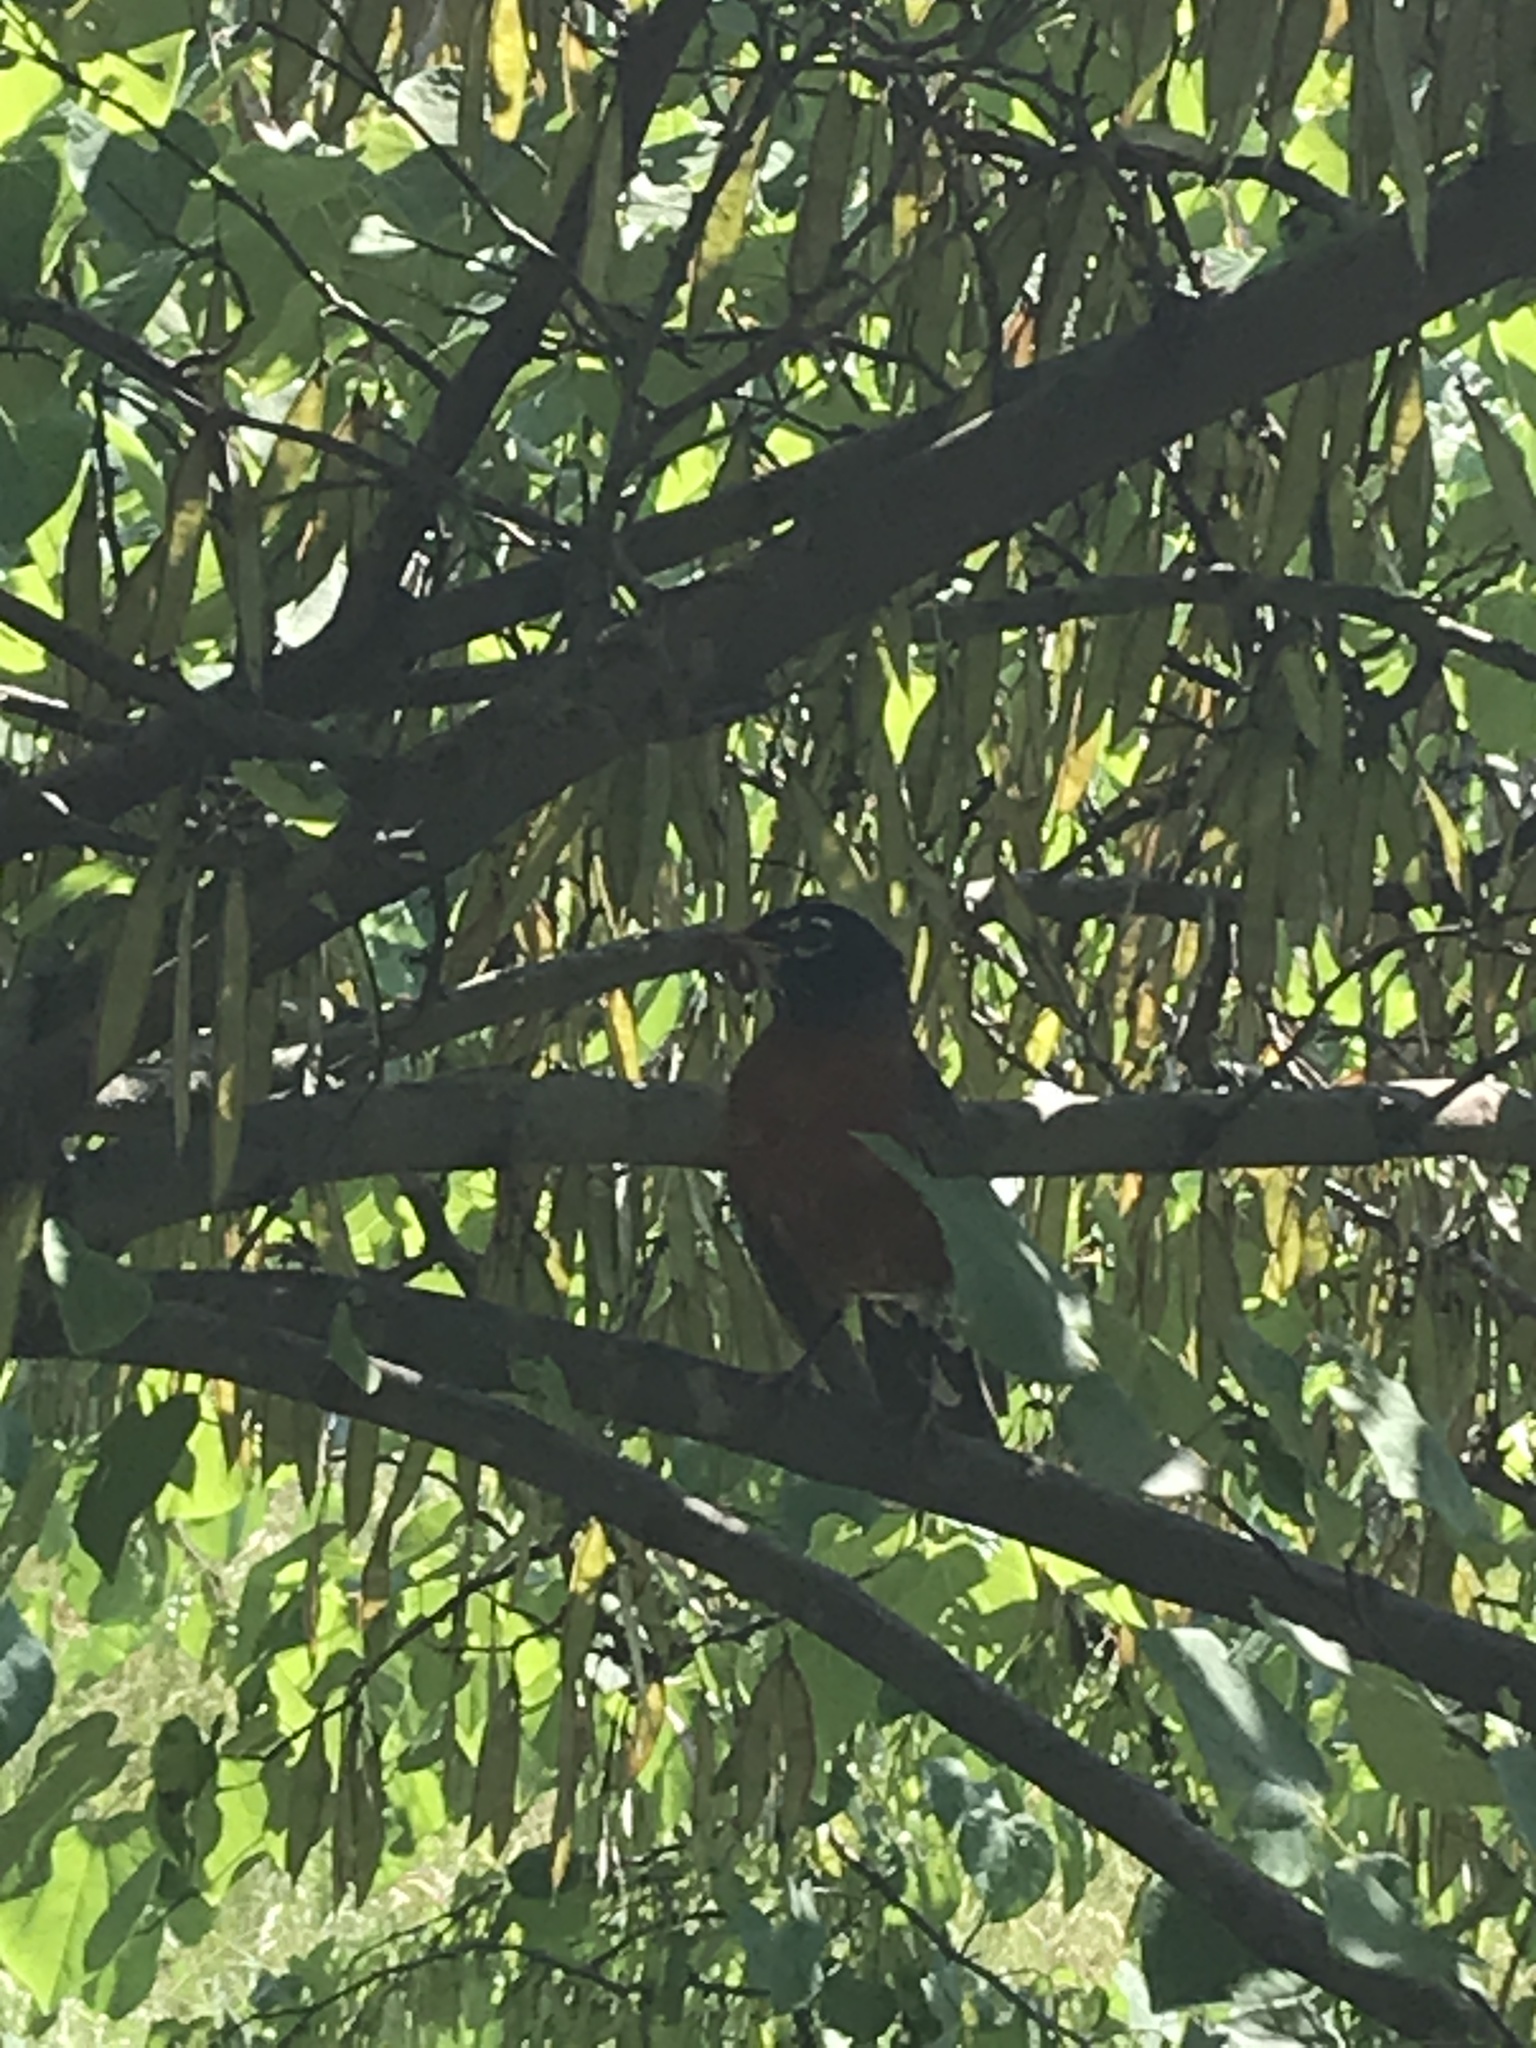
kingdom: Animalia
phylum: Chordata
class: Aves
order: Passeriformes
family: Turdidae
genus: Turdus
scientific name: Turdus migratorius
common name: American robin
